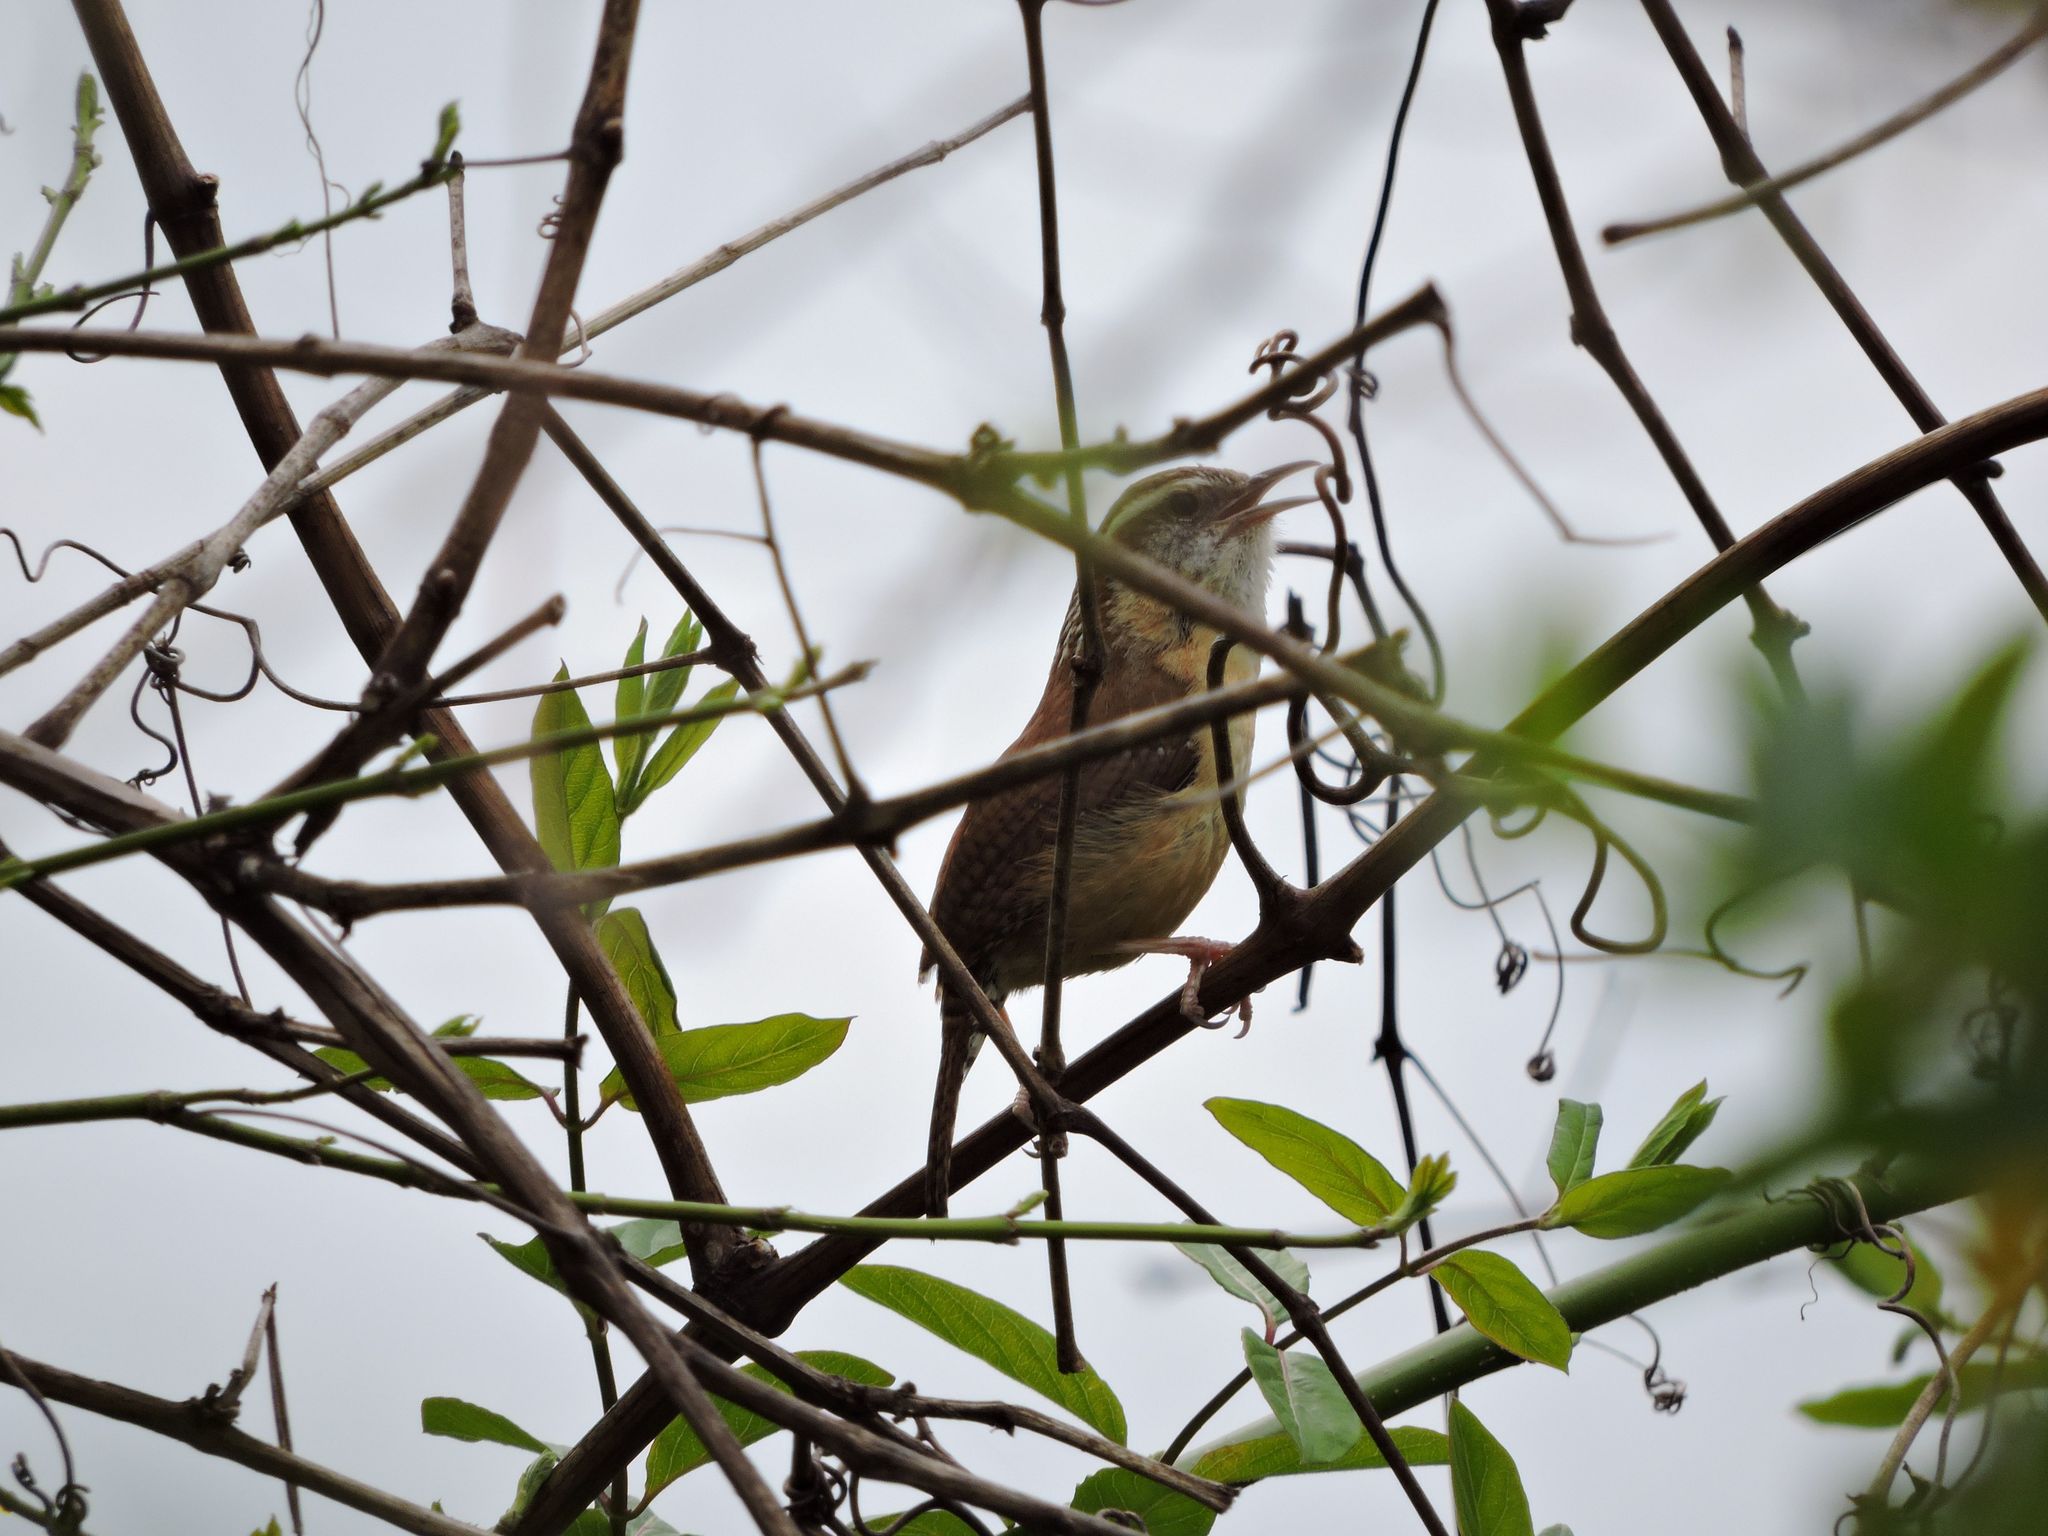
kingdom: Animalia
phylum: Chordata
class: Aves
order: Passeriformes
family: Troglodytidae
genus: Thryothorus
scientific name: Thryothorus ludovicianus
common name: Carolina wren
